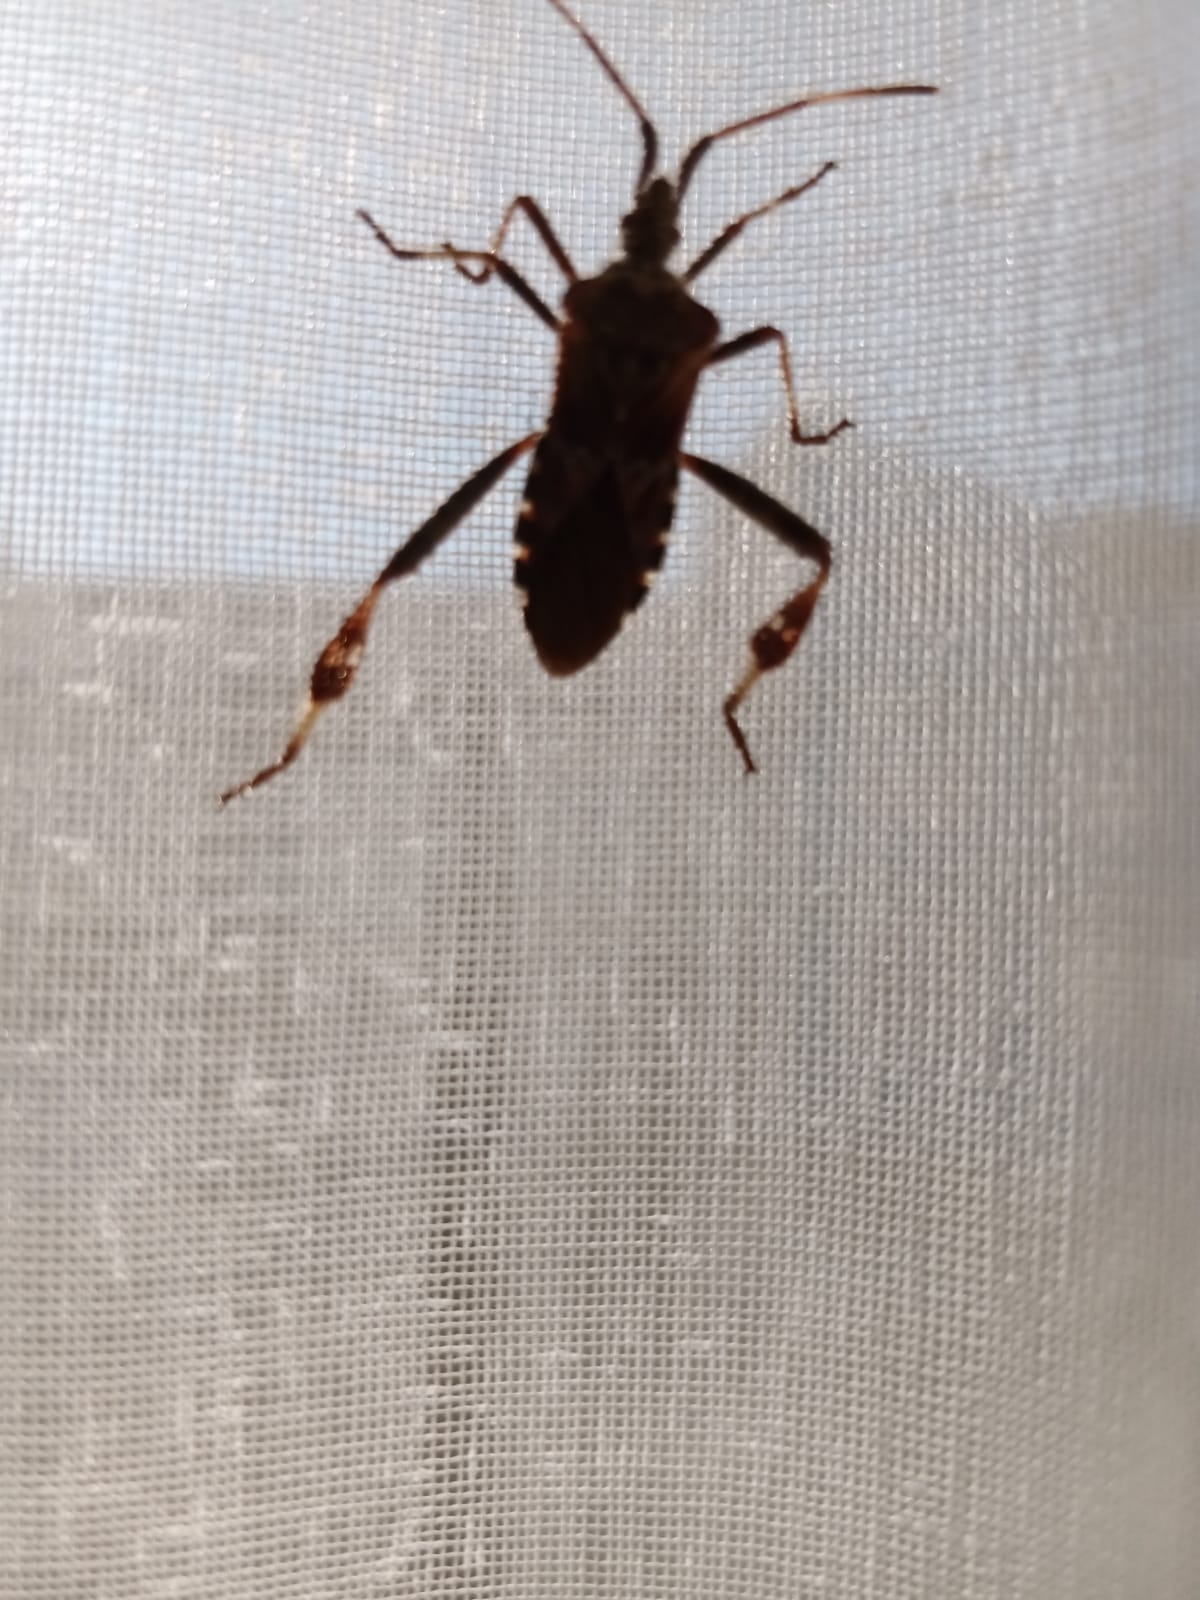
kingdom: Animalia
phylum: Arthropoda
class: Insecta
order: Hemiptera
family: Coreidae
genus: Leptoglossus
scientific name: Leptoglossus occidentalis
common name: Western conifer-seed bug
